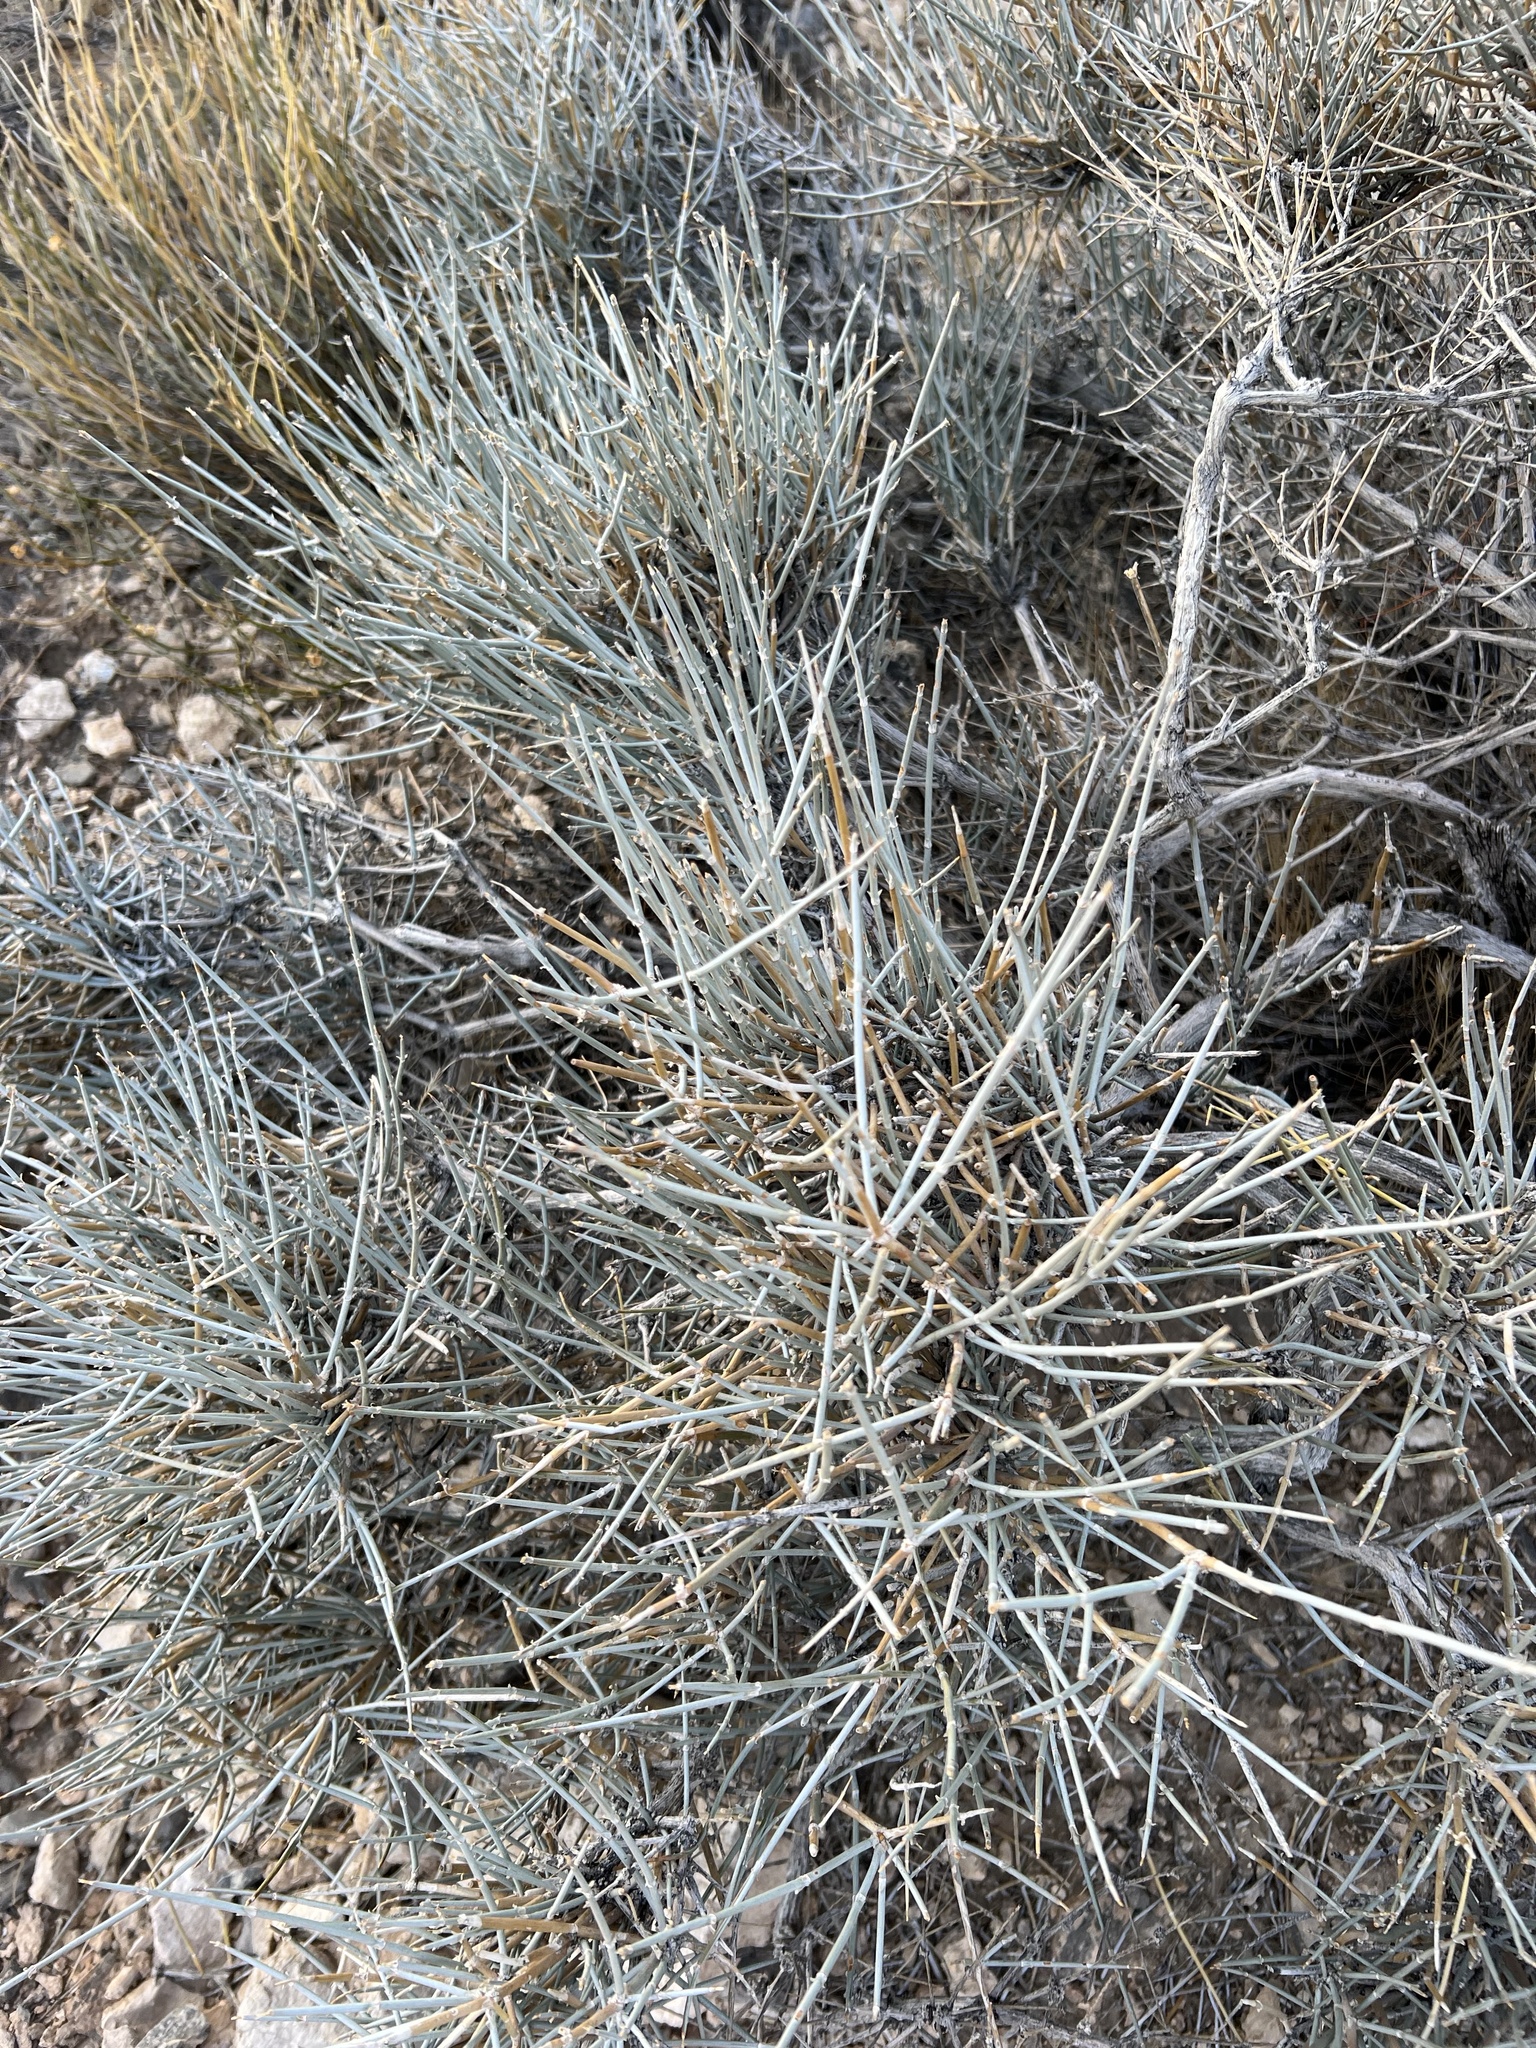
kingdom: Plantae
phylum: Tracheophyta
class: Gnetopsida
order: Ephedrales
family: Ephedraceae
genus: Ephedra
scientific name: Ephedra nevadensis
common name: Gray ephedra
